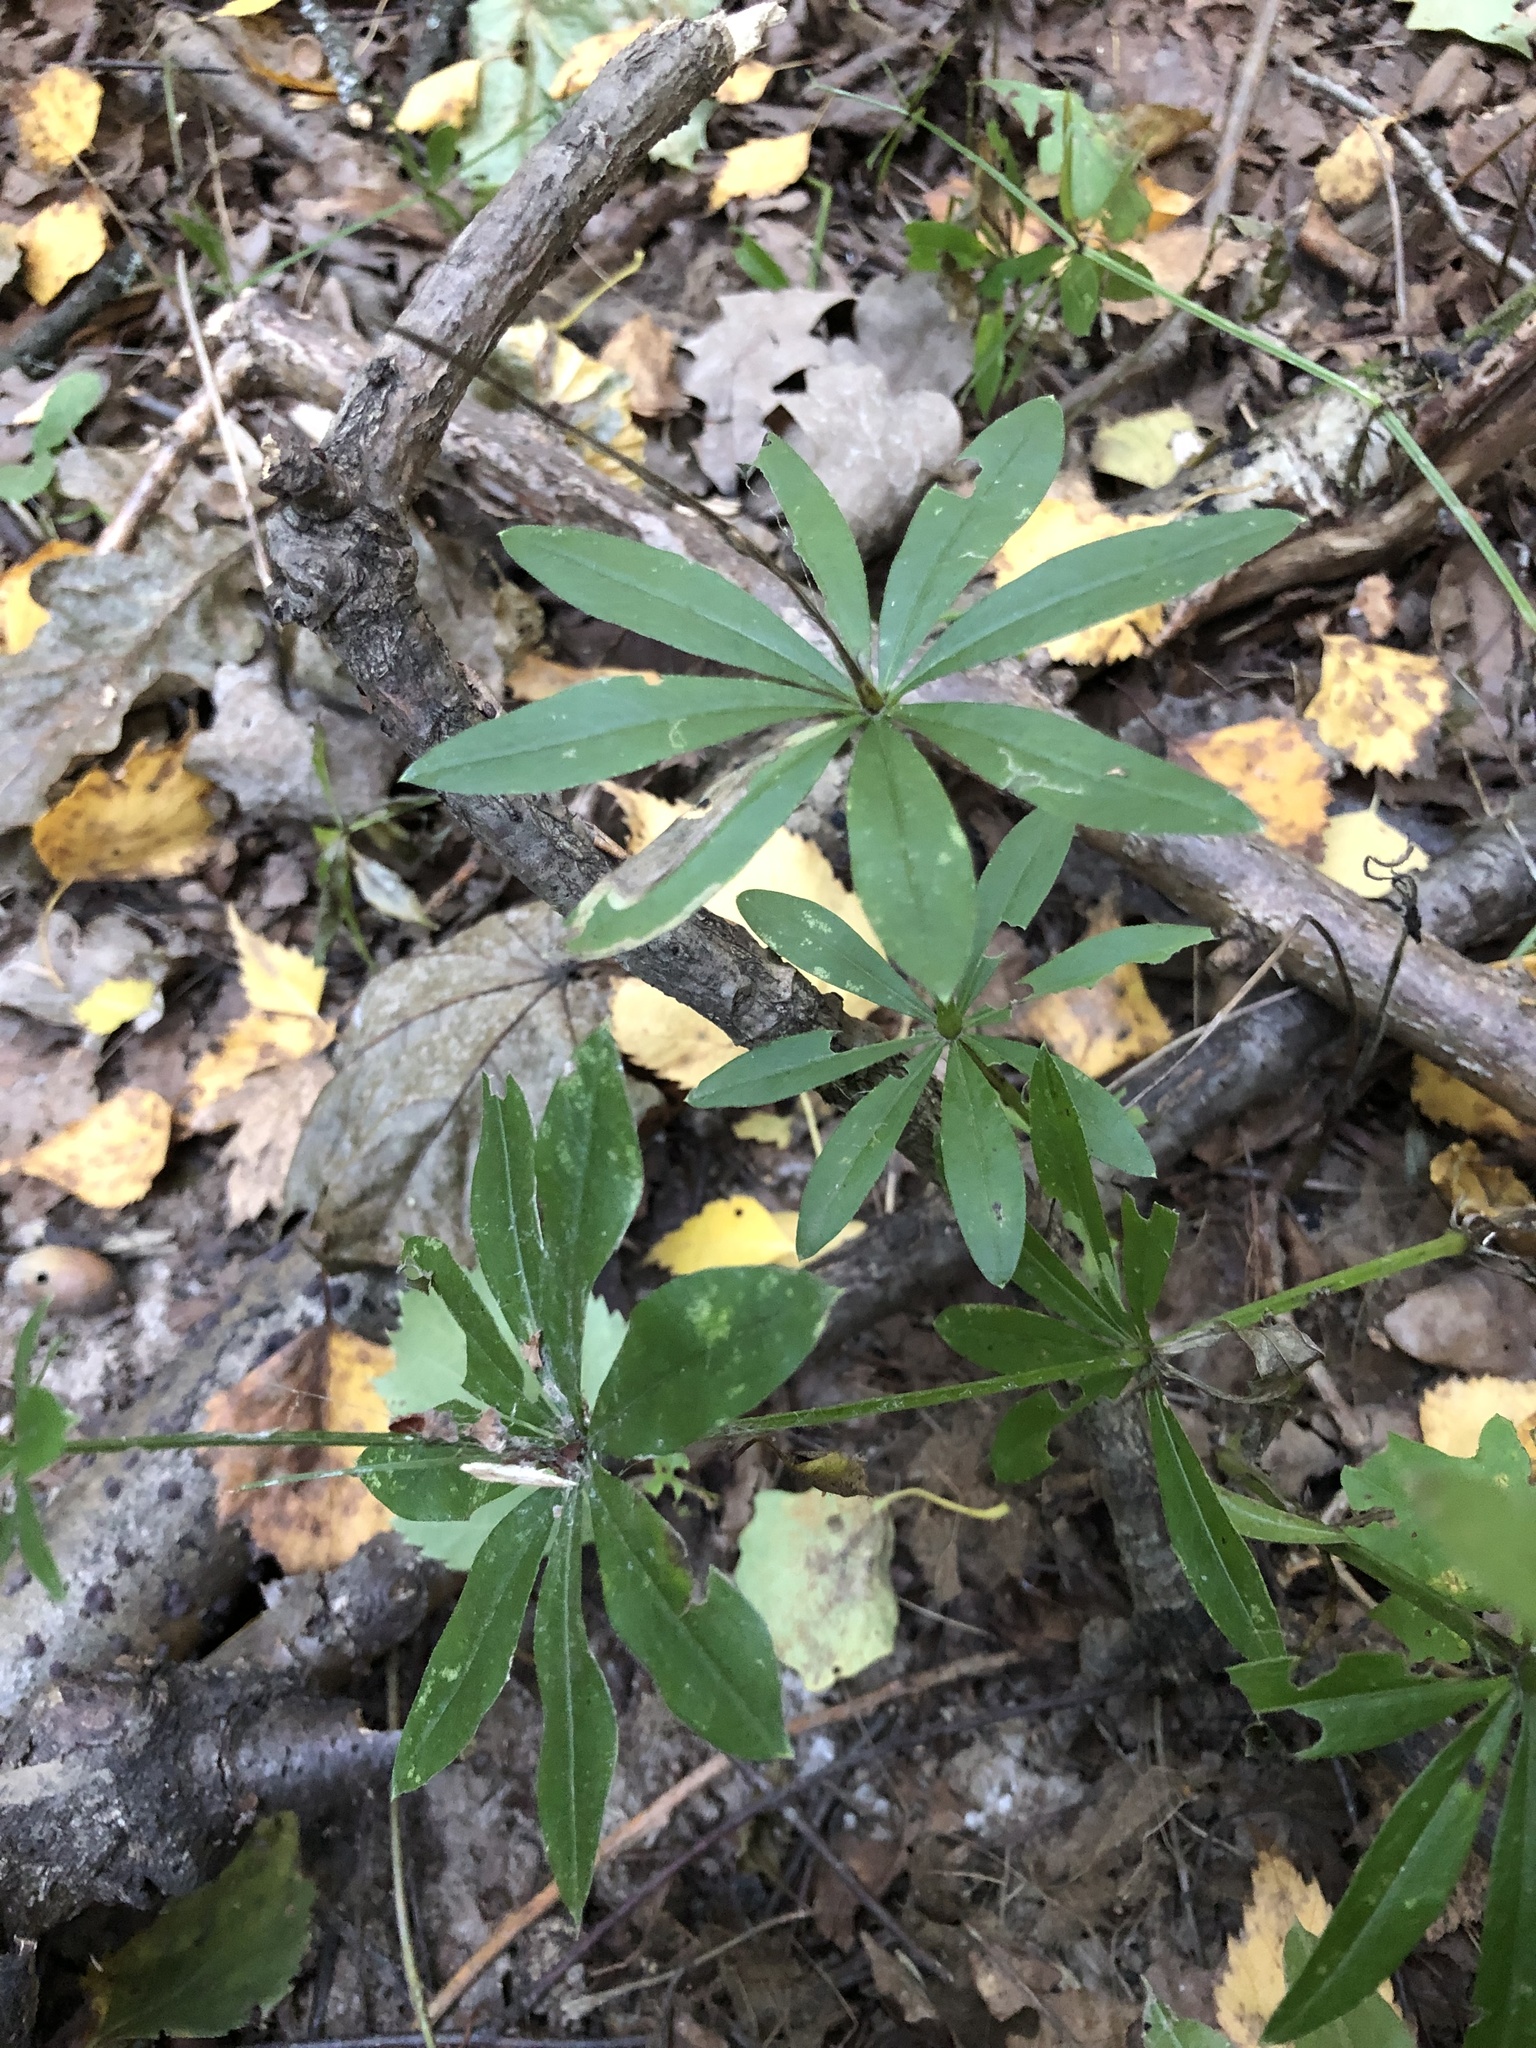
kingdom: Plantae
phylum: Tracheophyta
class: Magnoliopsida
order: Gentianales
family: Rubiaceae
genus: Galium
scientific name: Galium odoratum
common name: Sweet woodruff
